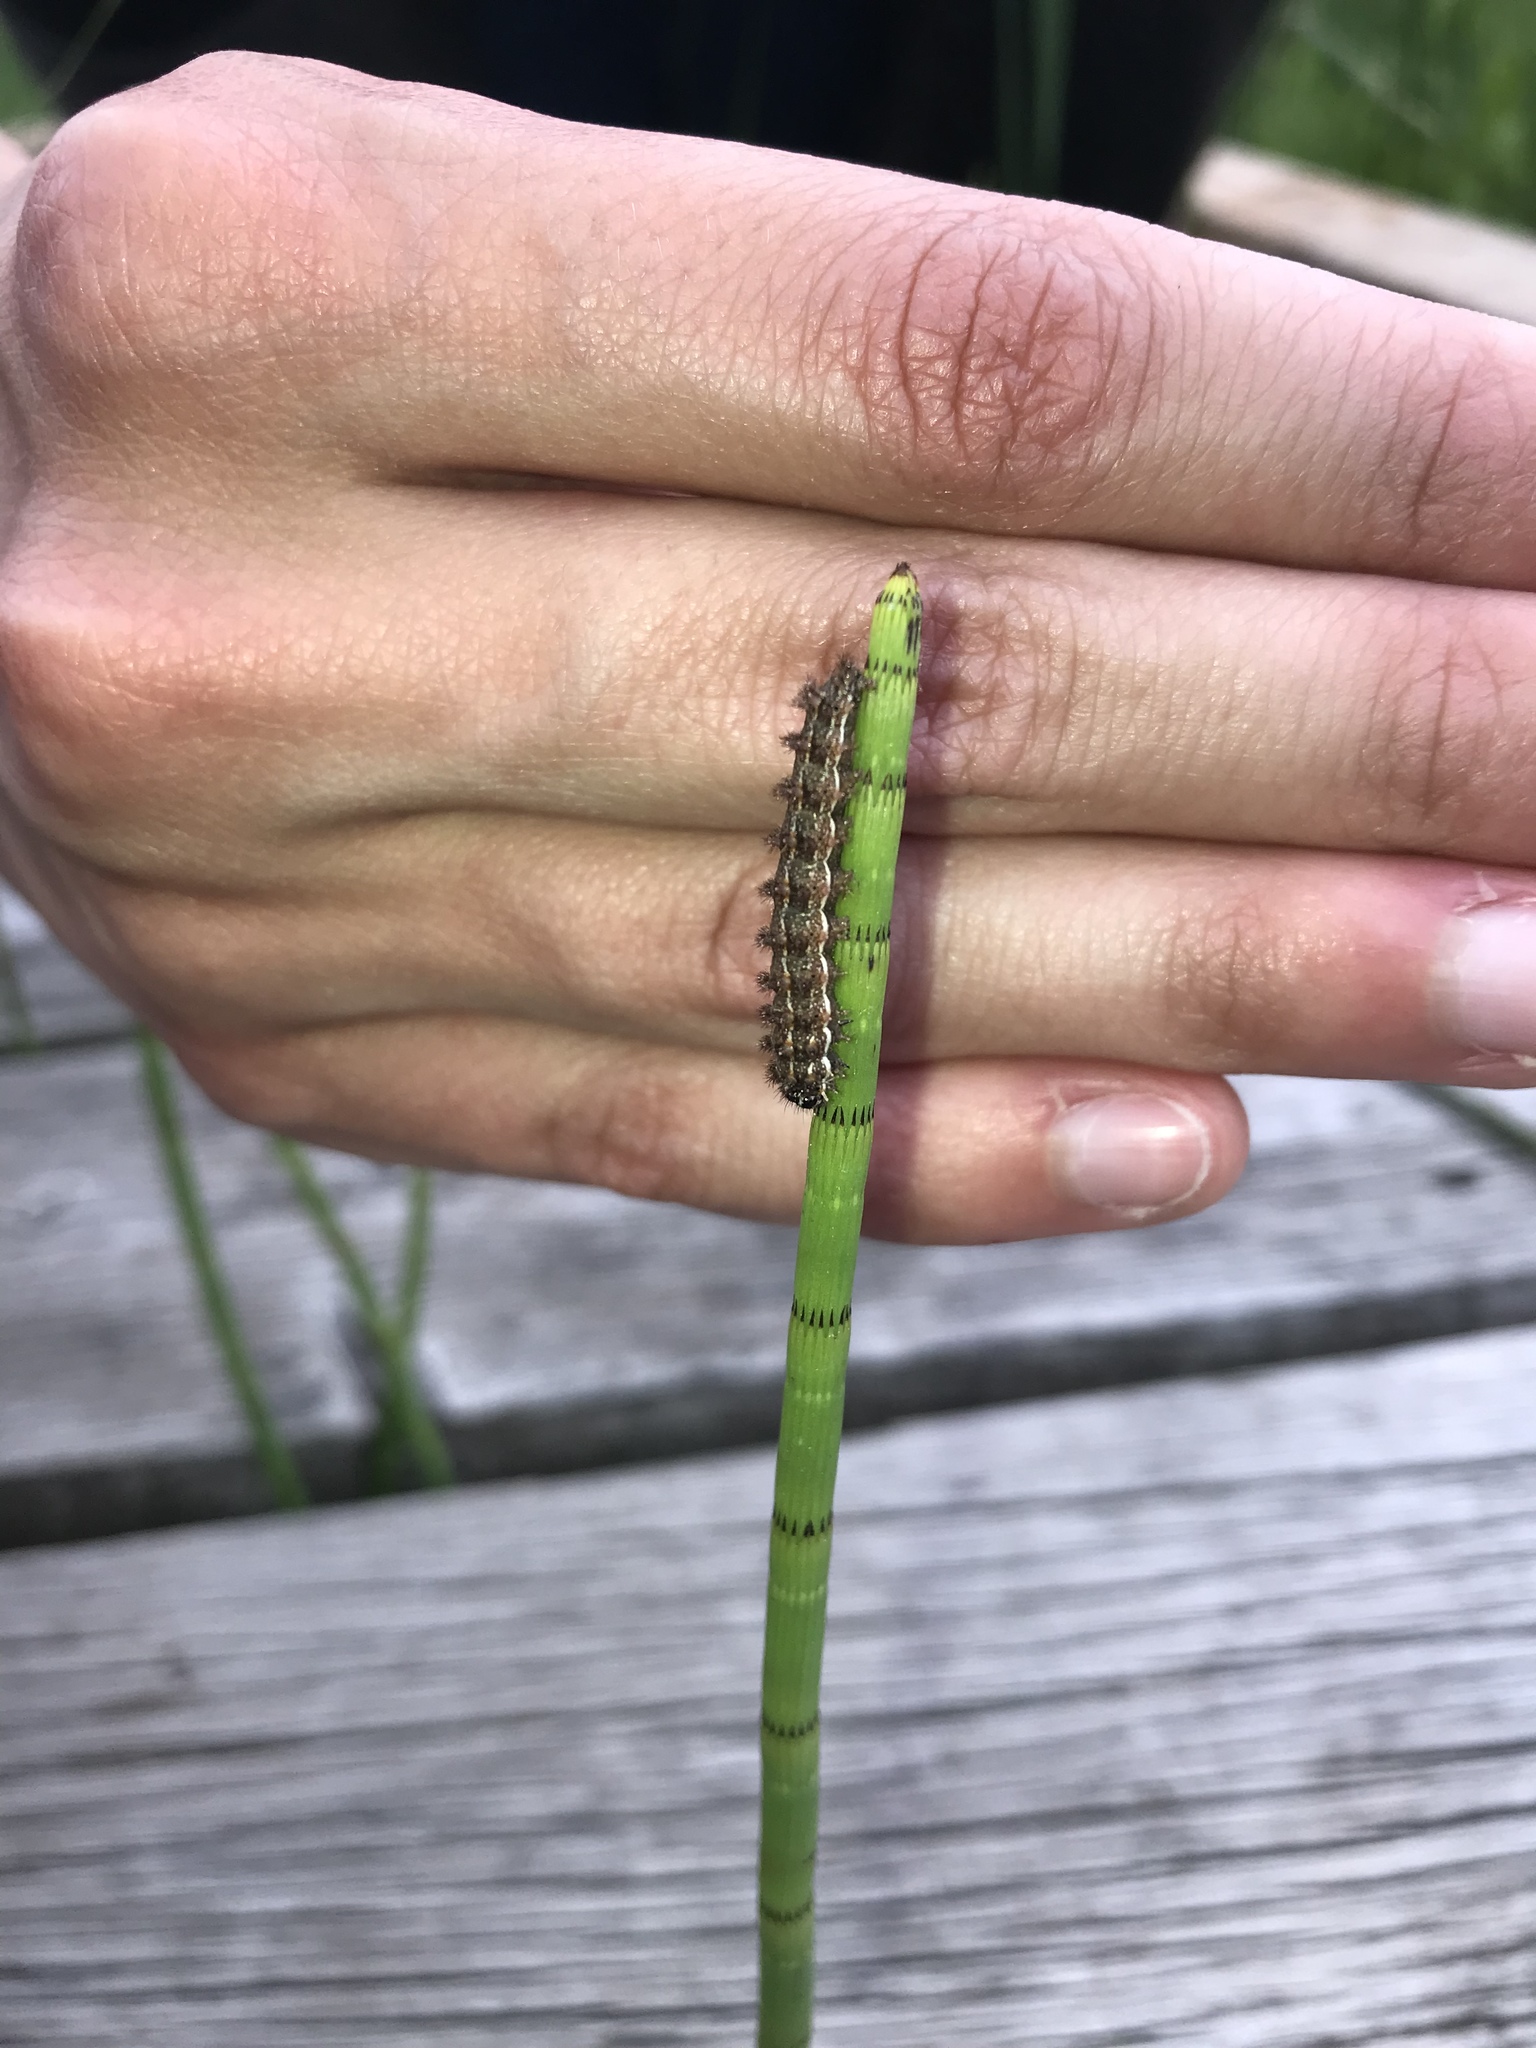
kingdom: Plantae
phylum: Tracheophyta
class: Polypodiopsida
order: Equisetales
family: Equisetaceae
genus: Equisetum
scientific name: Equisetum laevigatum
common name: Smooth scouring-rush
